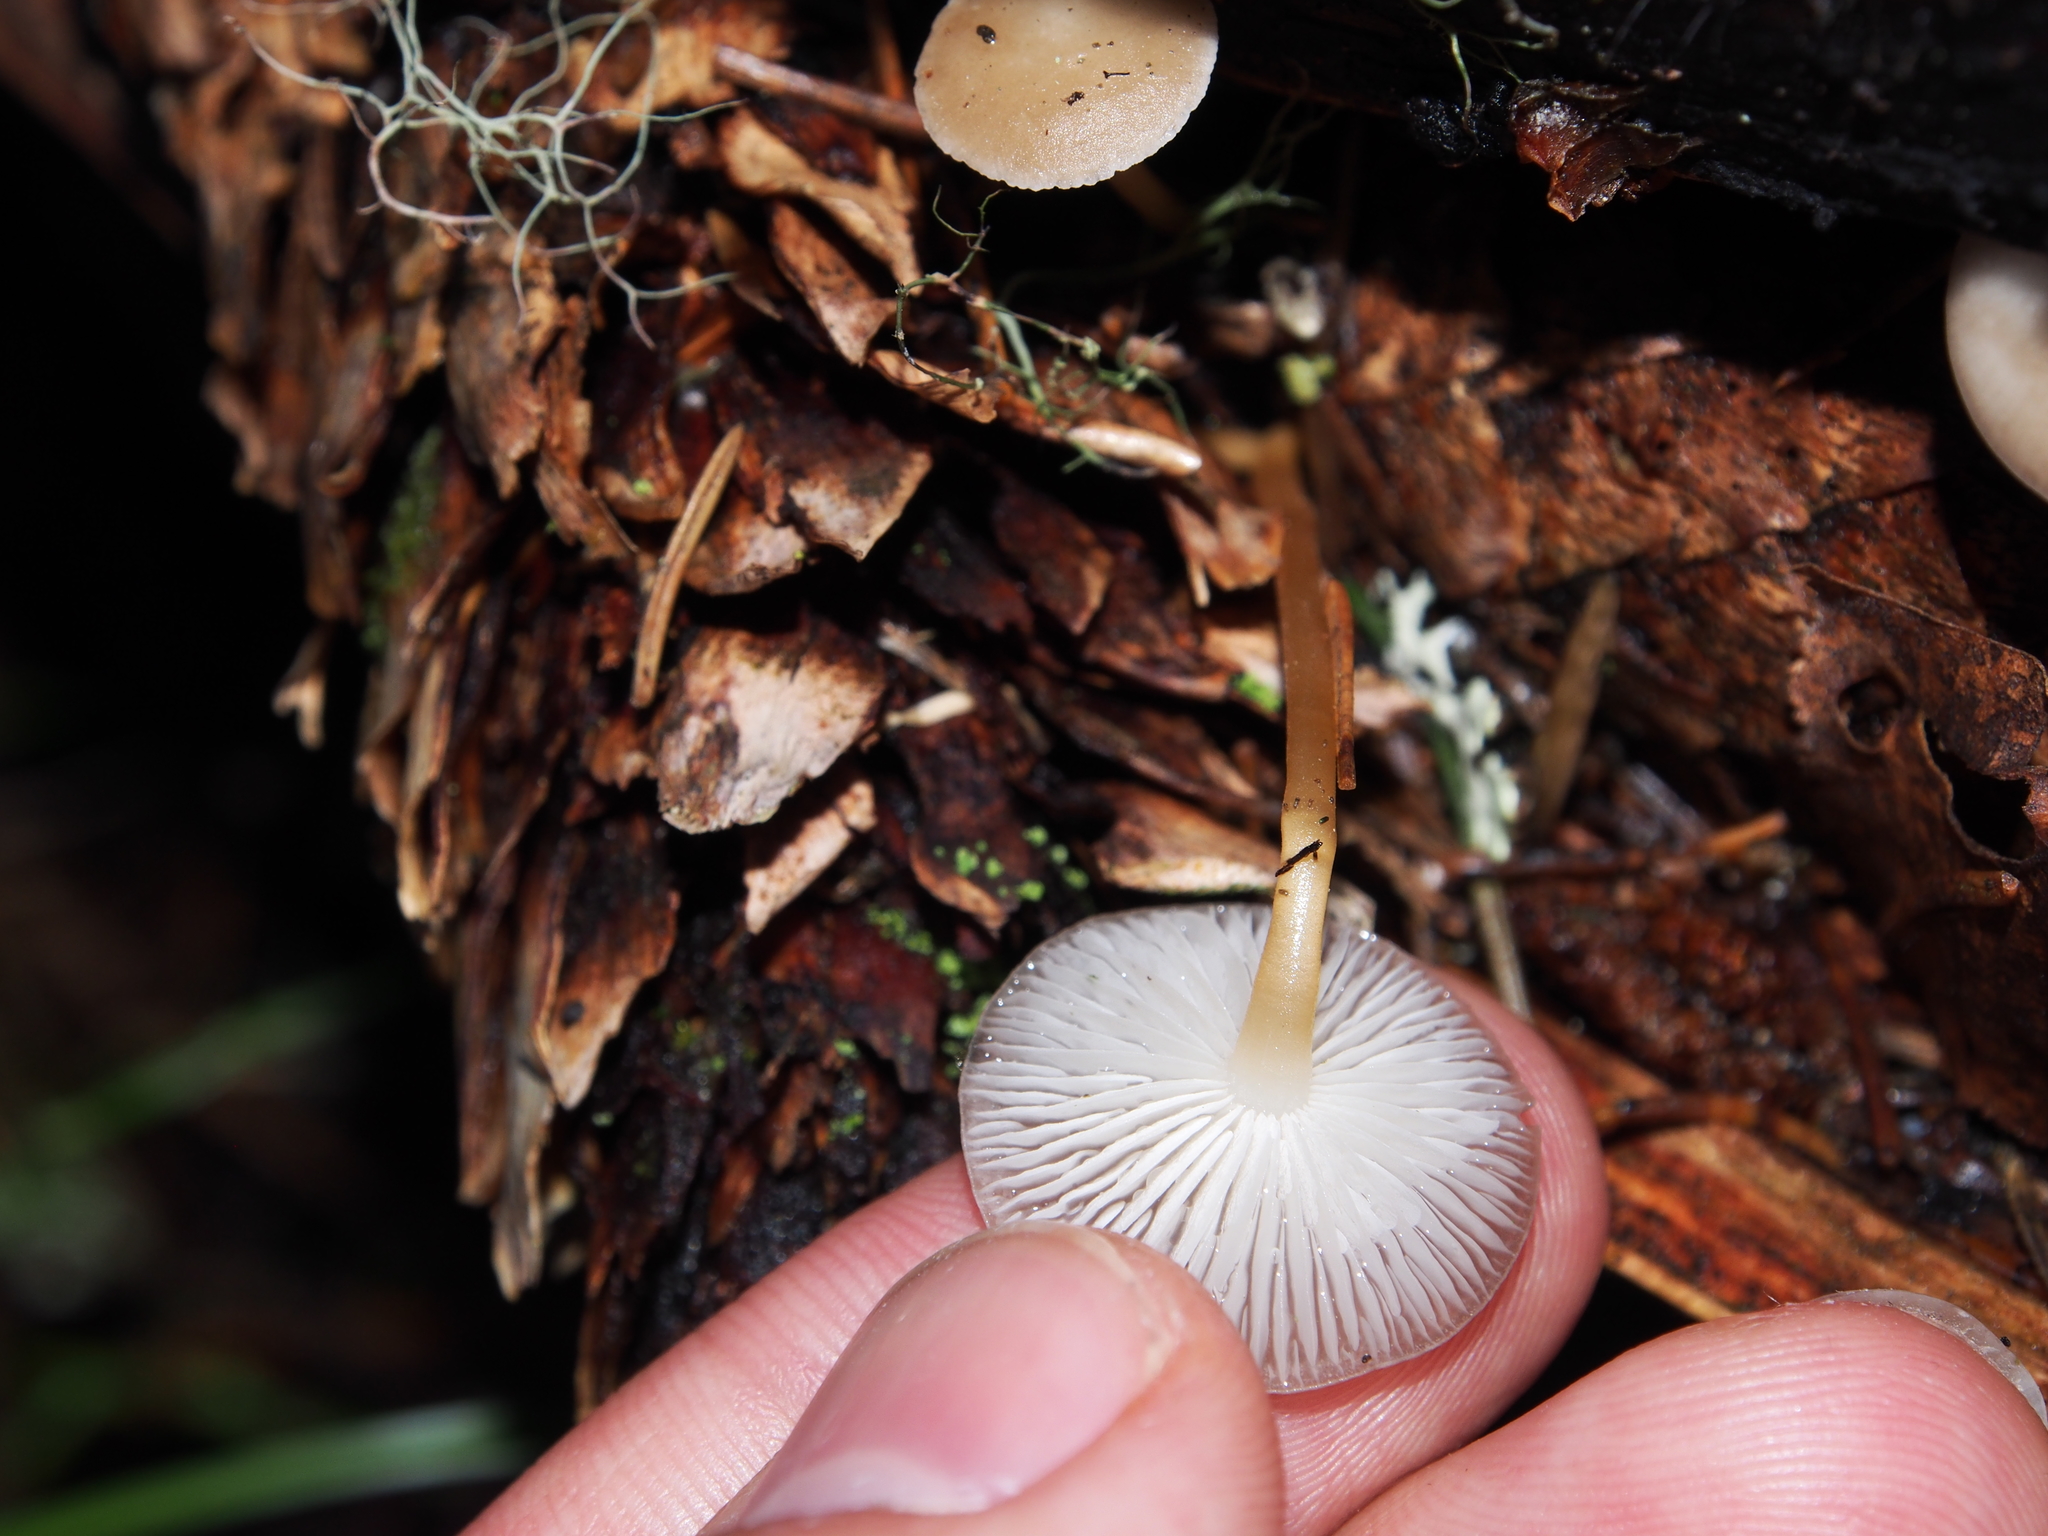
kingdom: Fungi
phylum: Basidiomycota
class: Agaricomycetes
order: Agaricales
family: Physalacriaceae
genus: Strobilurus
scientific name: Strobilurus esculentus
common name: Sprucecone cap
